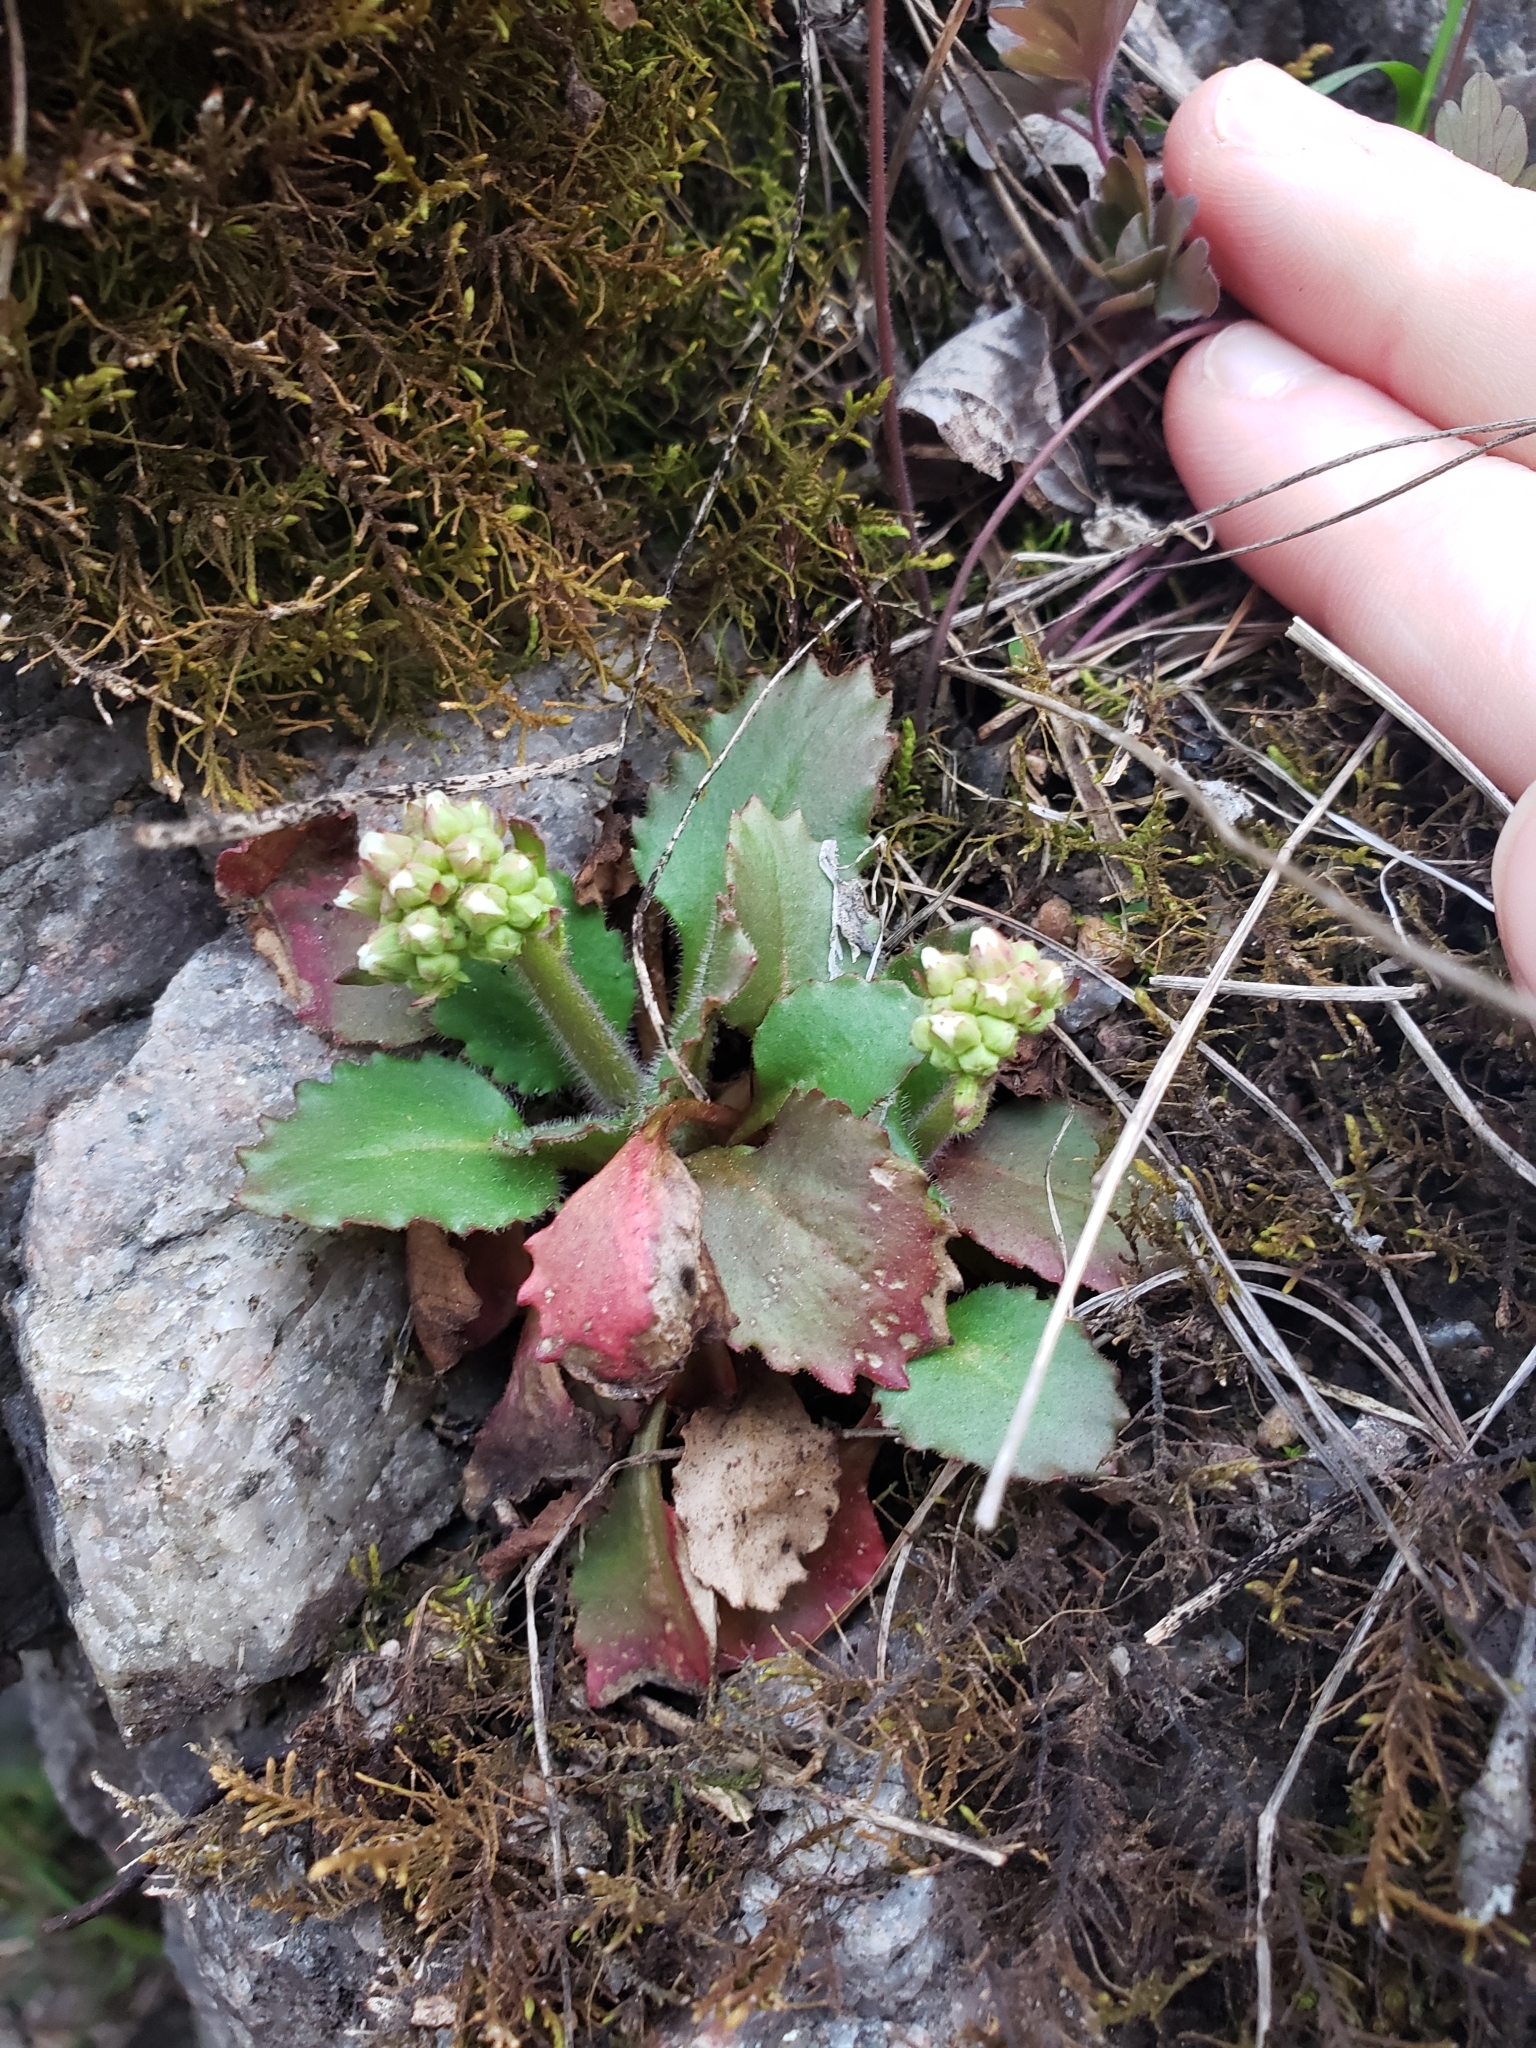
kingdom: Plantae
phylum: Tracheophyta
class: Magnoliopsida
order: Saxifragales
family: Saxifragaceae
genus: Micranthes
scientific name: Micranthes virginiensis
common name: Early saxifrage
